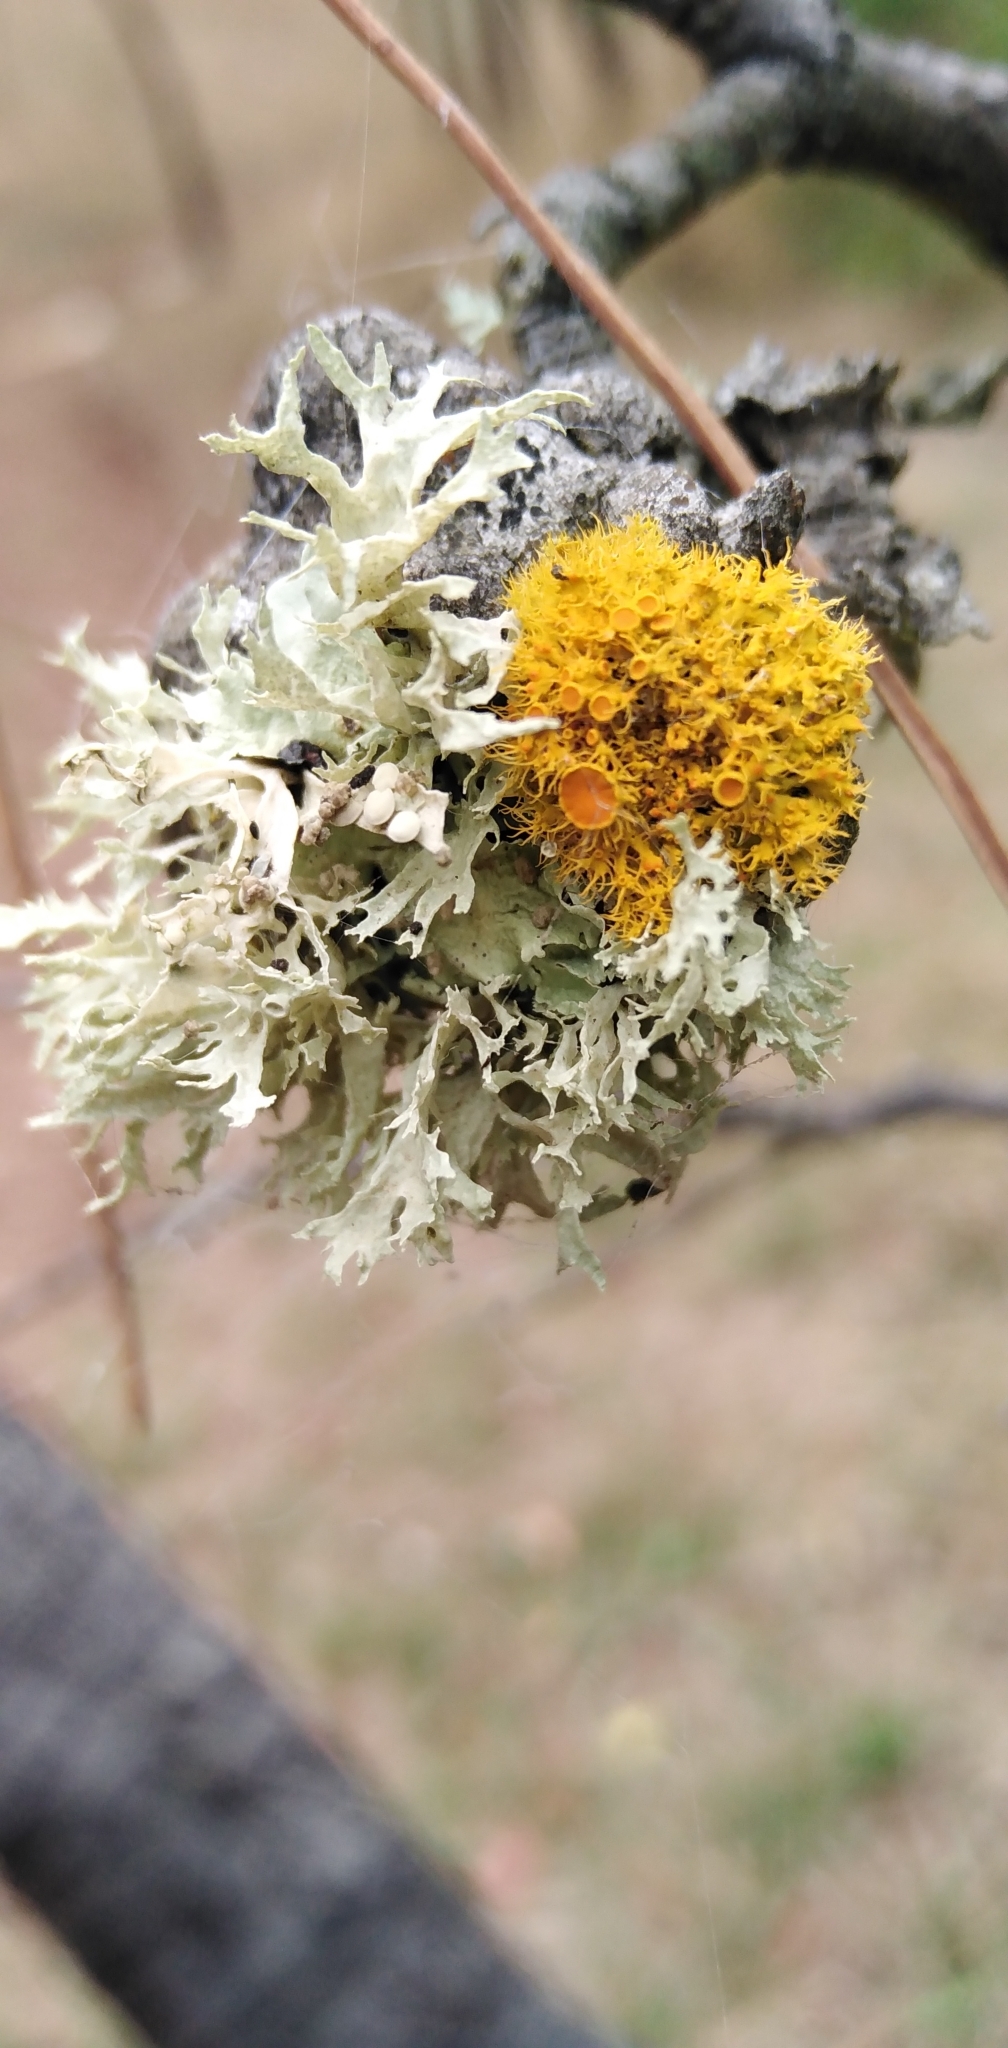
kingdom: Fungi
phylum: Ascomycota
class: Lecanoromycetes
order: Teloschistales
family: Teloschistaceae
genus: Niorma
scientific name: Niorma chrysophthalma
